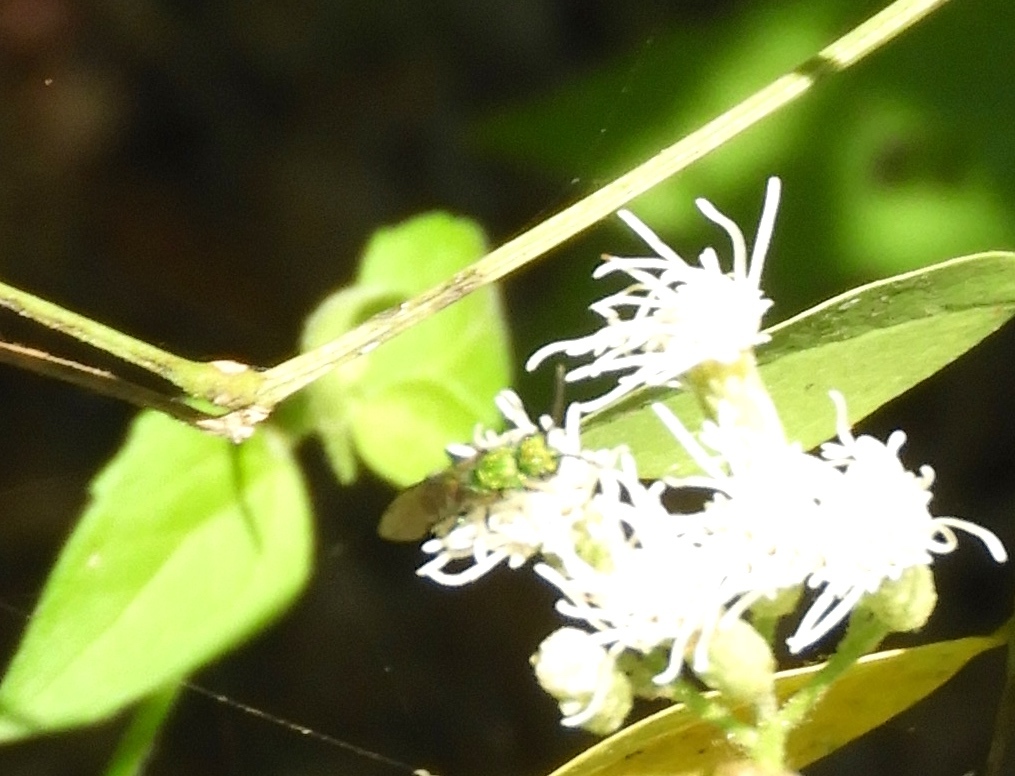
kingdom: Animalia
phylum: Arthropoda
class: Insecta
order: Hymenoptera
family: Halictidae
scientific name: Halictidae
